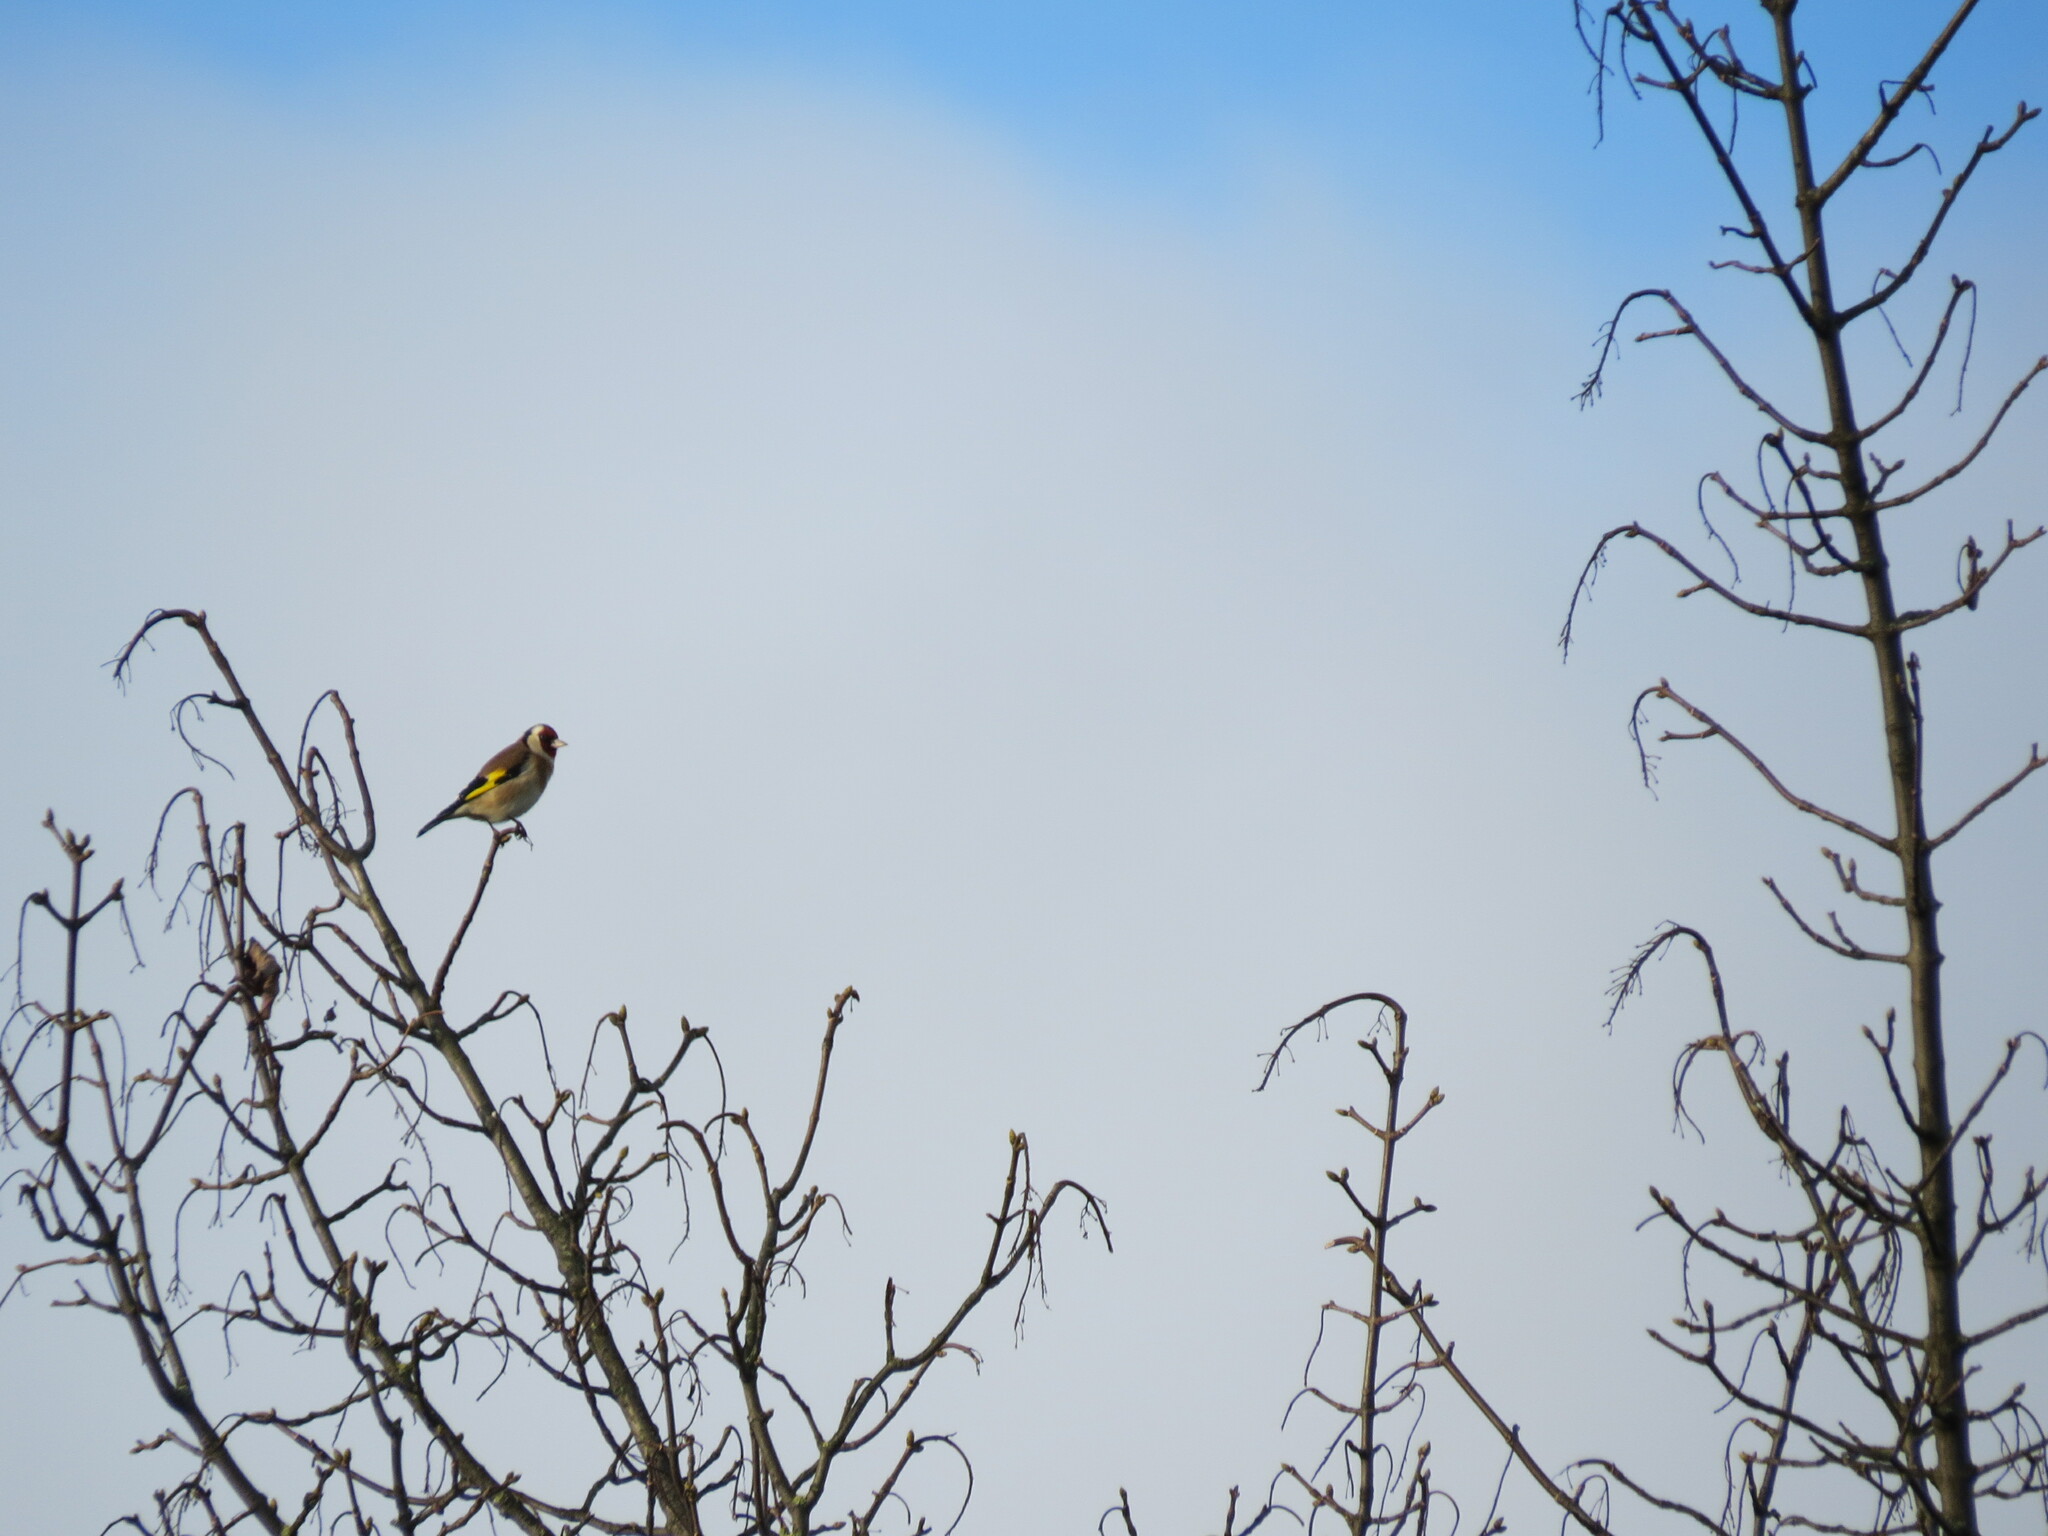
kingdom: Animalia
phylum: Chordata
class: Aves
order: Passeriformes
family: Fringillidae
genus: Carduelis
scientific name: Carduelis carduelis
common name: European goldfinch
